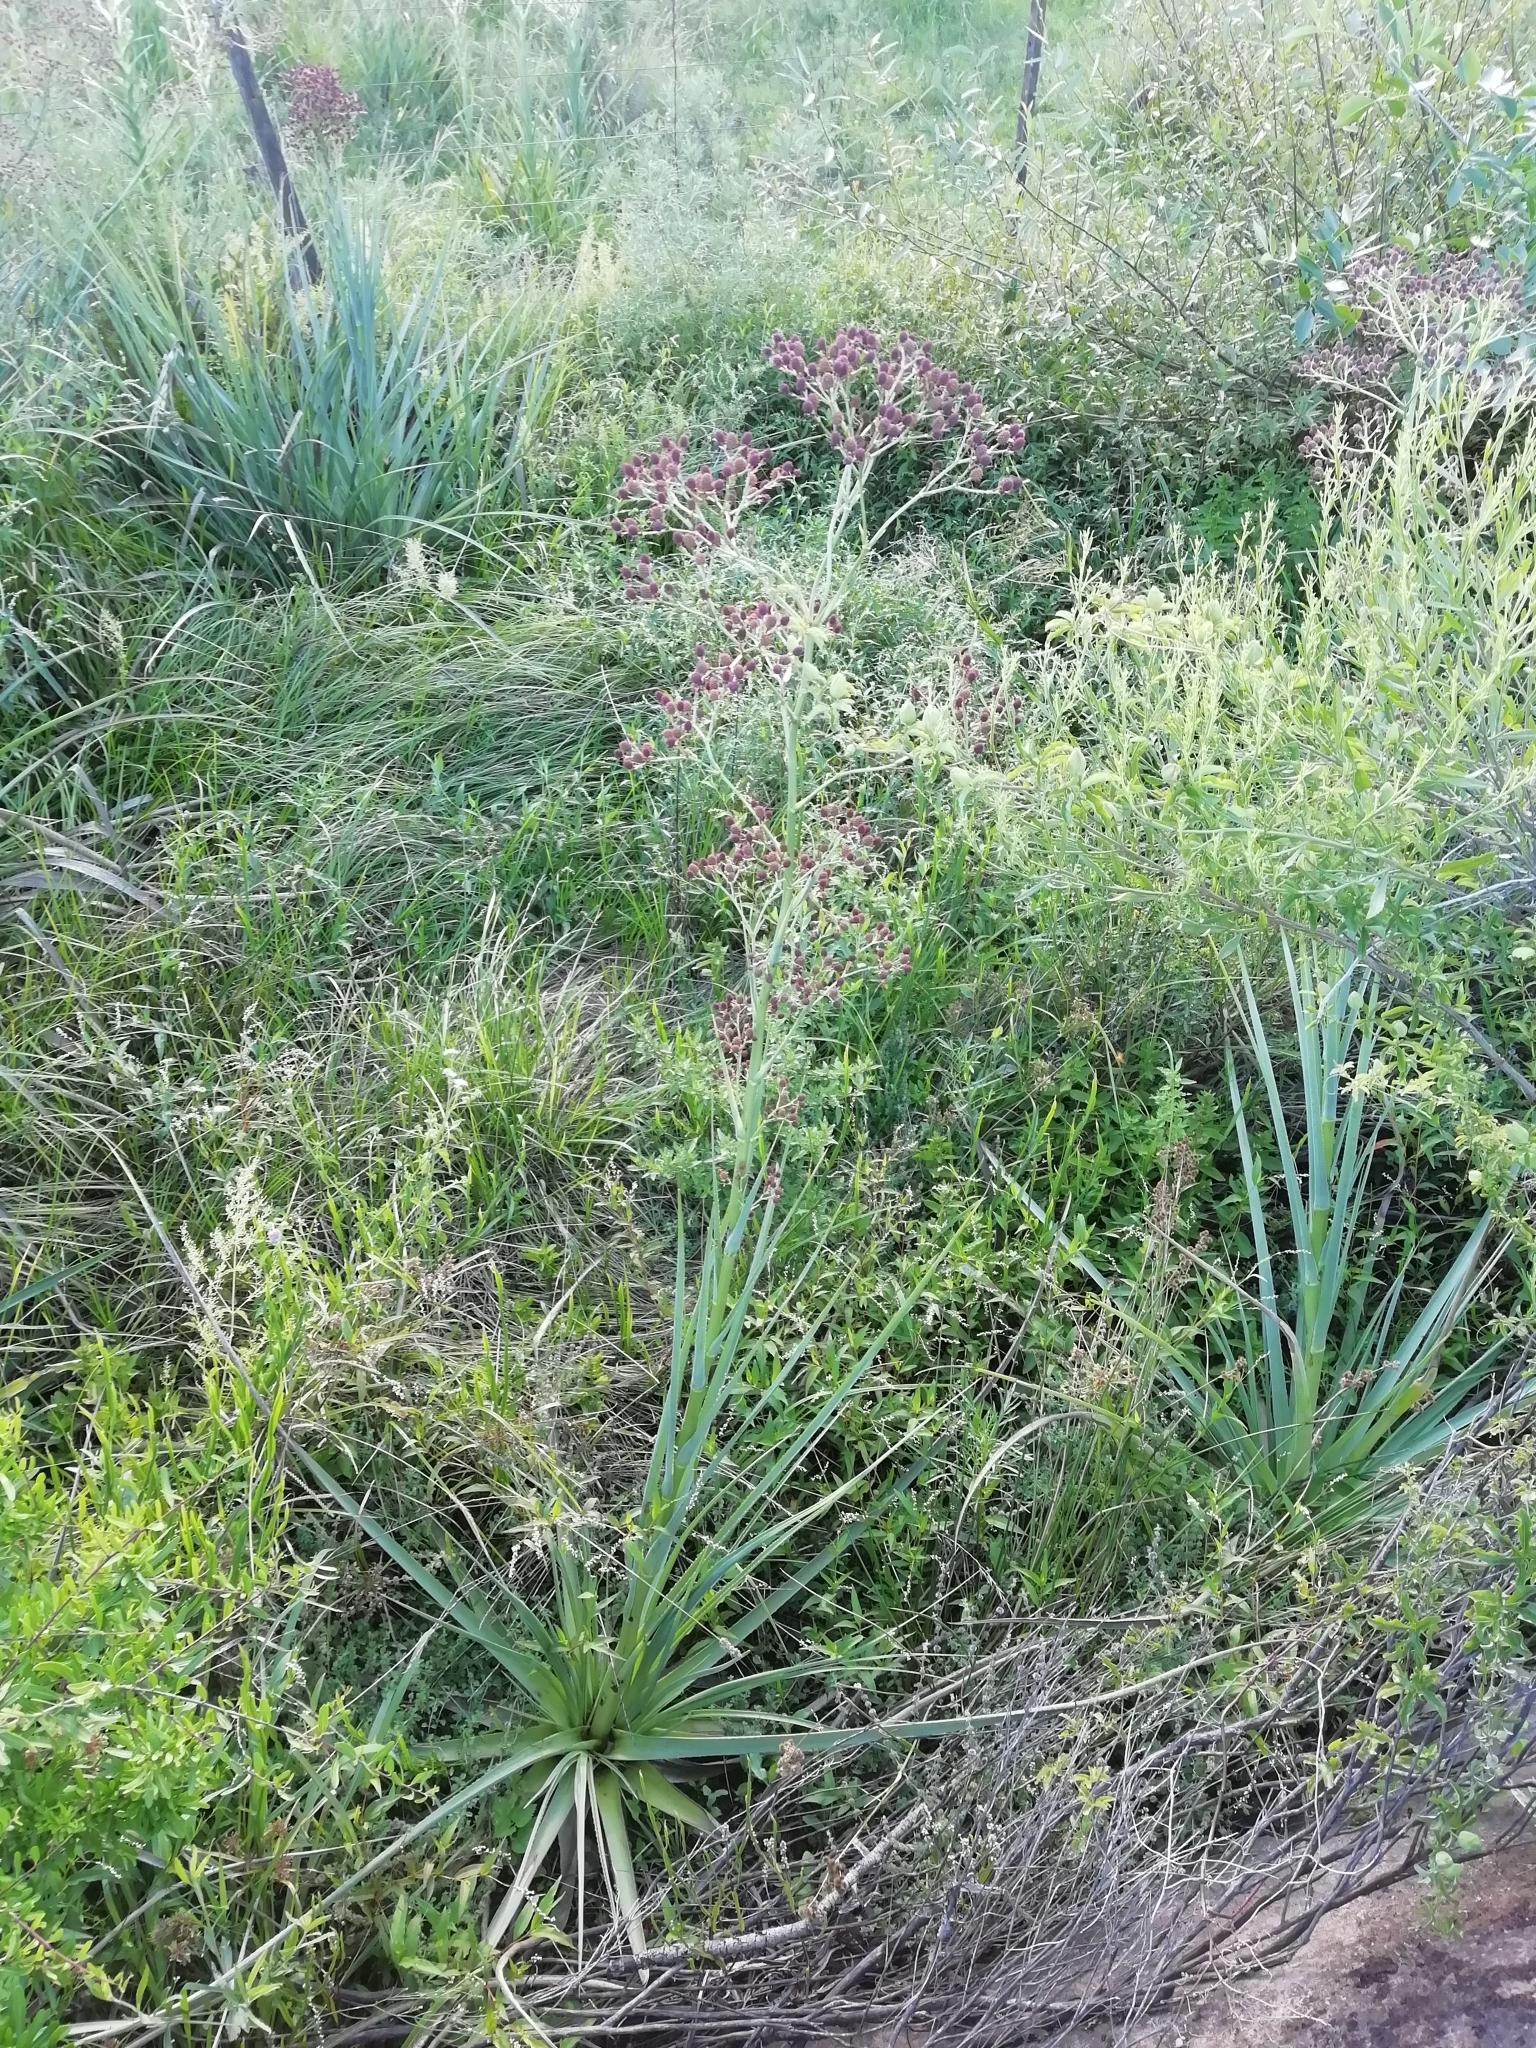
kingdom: Plantae
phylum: Tracheophyta
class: Magnoliopsida
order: Apiales
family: Apiaceae
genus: Eryngium
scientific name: Eryngium pandanifolium
